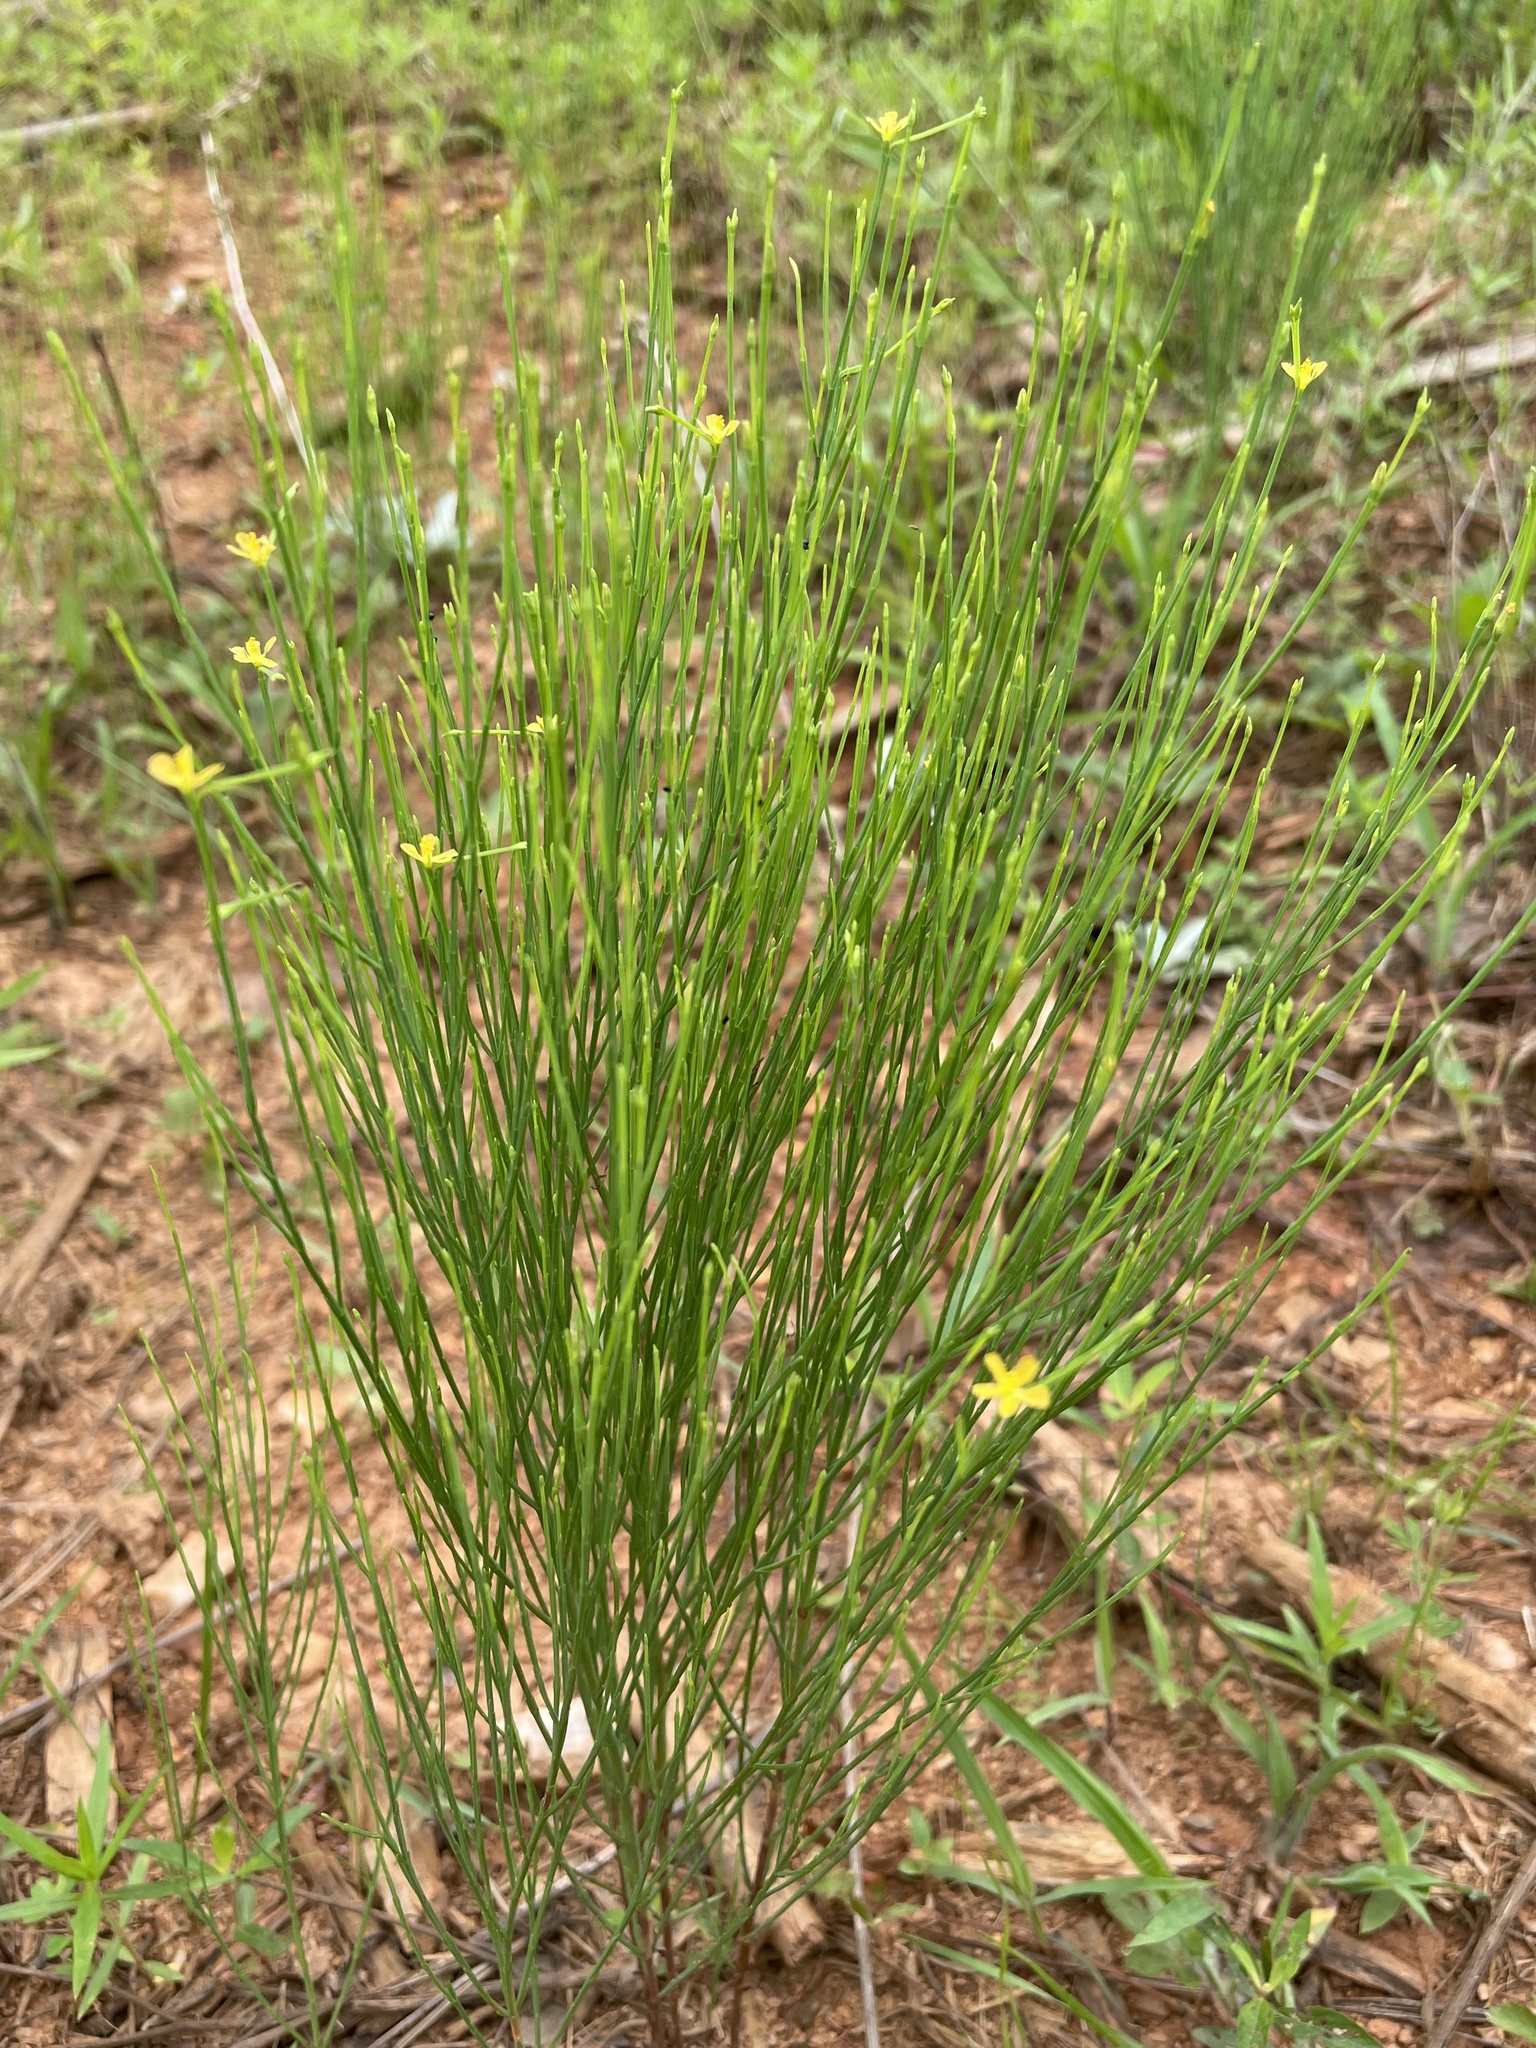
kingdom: Plantae
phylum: Tracheophyta
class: Magnoliopsida
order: Malpighiales
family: Hypericaceae
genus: Hypericum
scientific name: Hypericum gentianoides
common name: Gentian-leaved st. john's-wort
